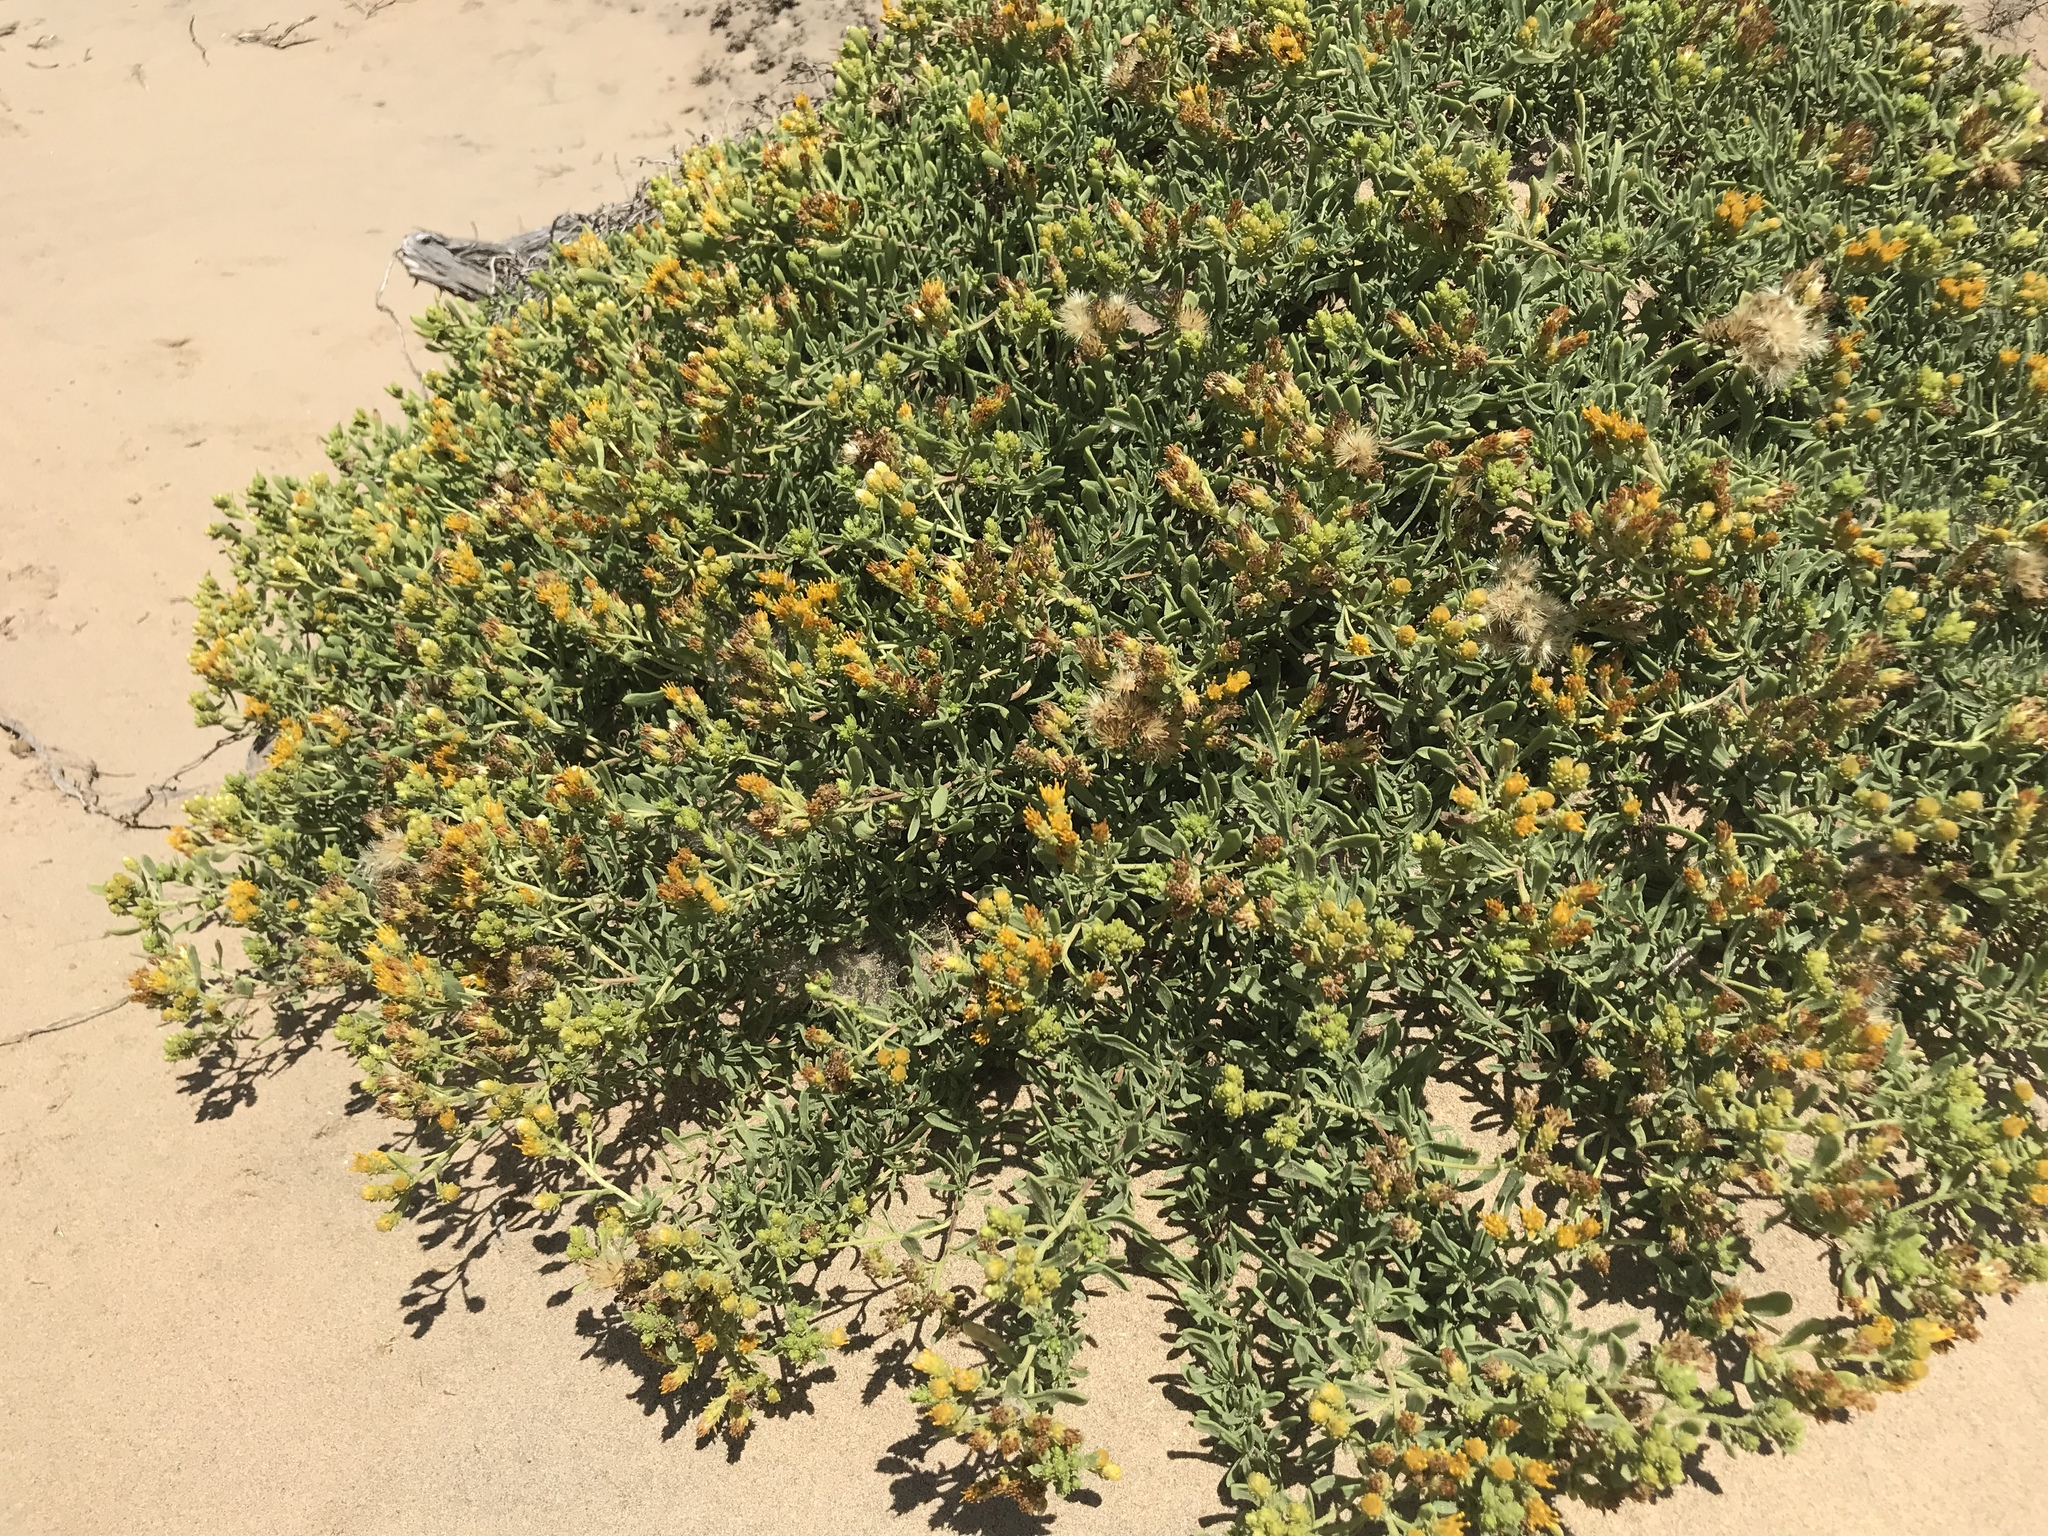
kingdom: Plantae
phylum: Tracheophyta
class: Magnoliopsida
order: Asterales
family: Asteraceae
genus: Isocoma
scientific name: Isocoma menziesii
